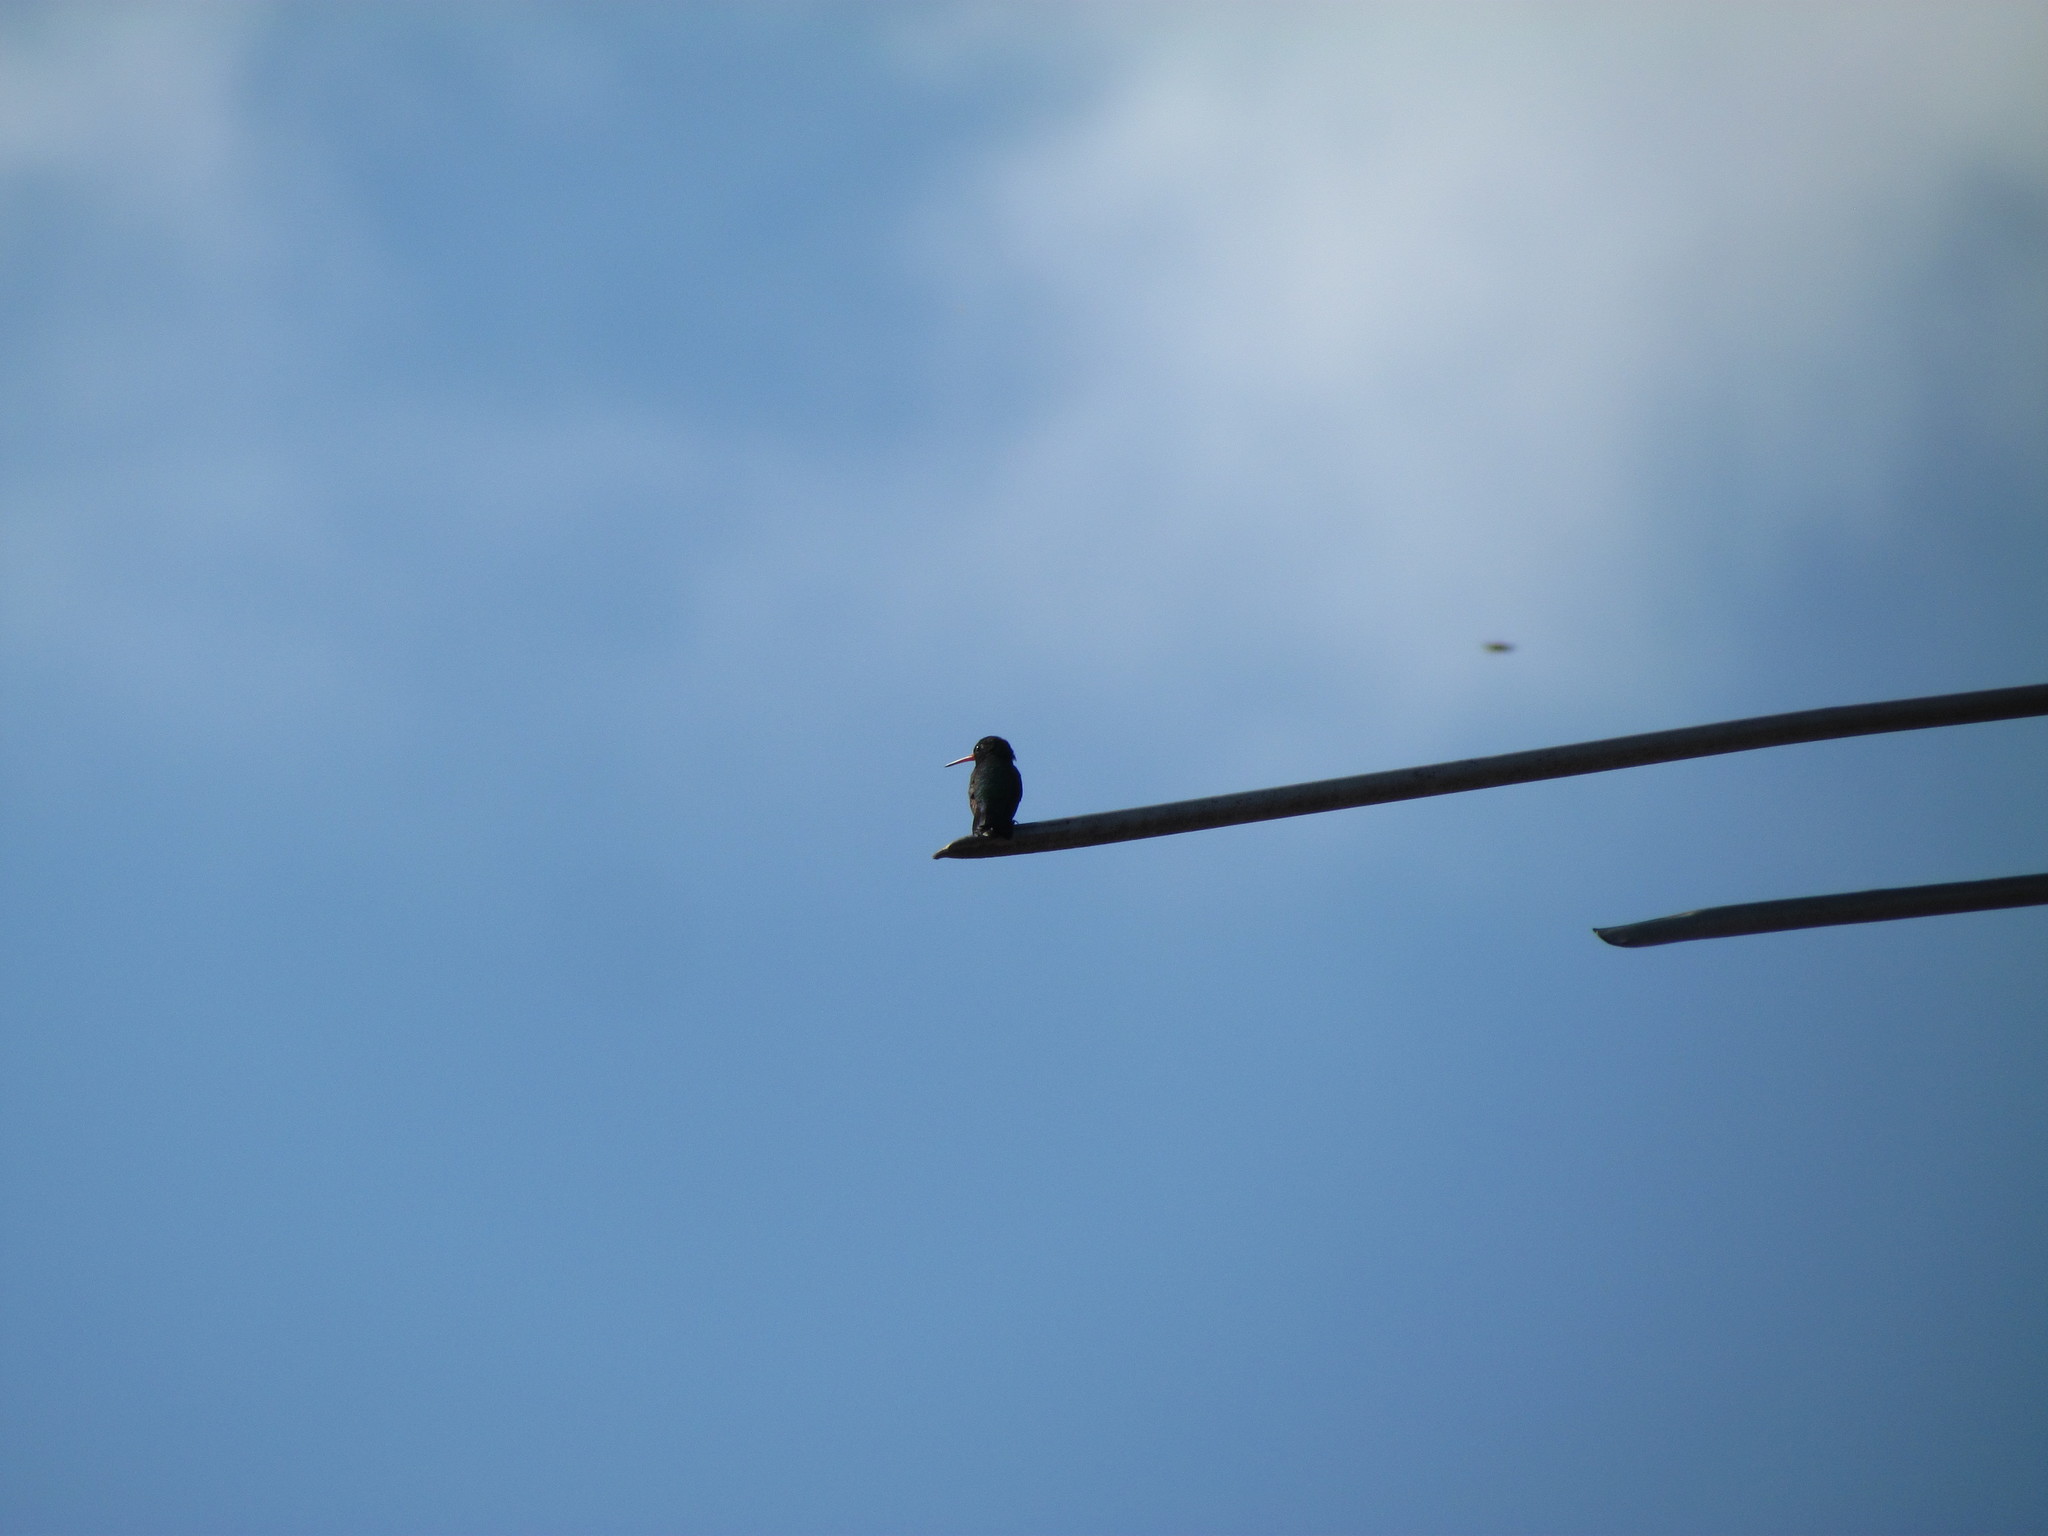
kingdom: Animalia
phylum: Chordata
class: Aves
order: Apodiformes
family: Trochilidae
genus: Chlorostilbon
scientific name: Chlorostilbon lucidus
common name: Glittering-bellied emerald
